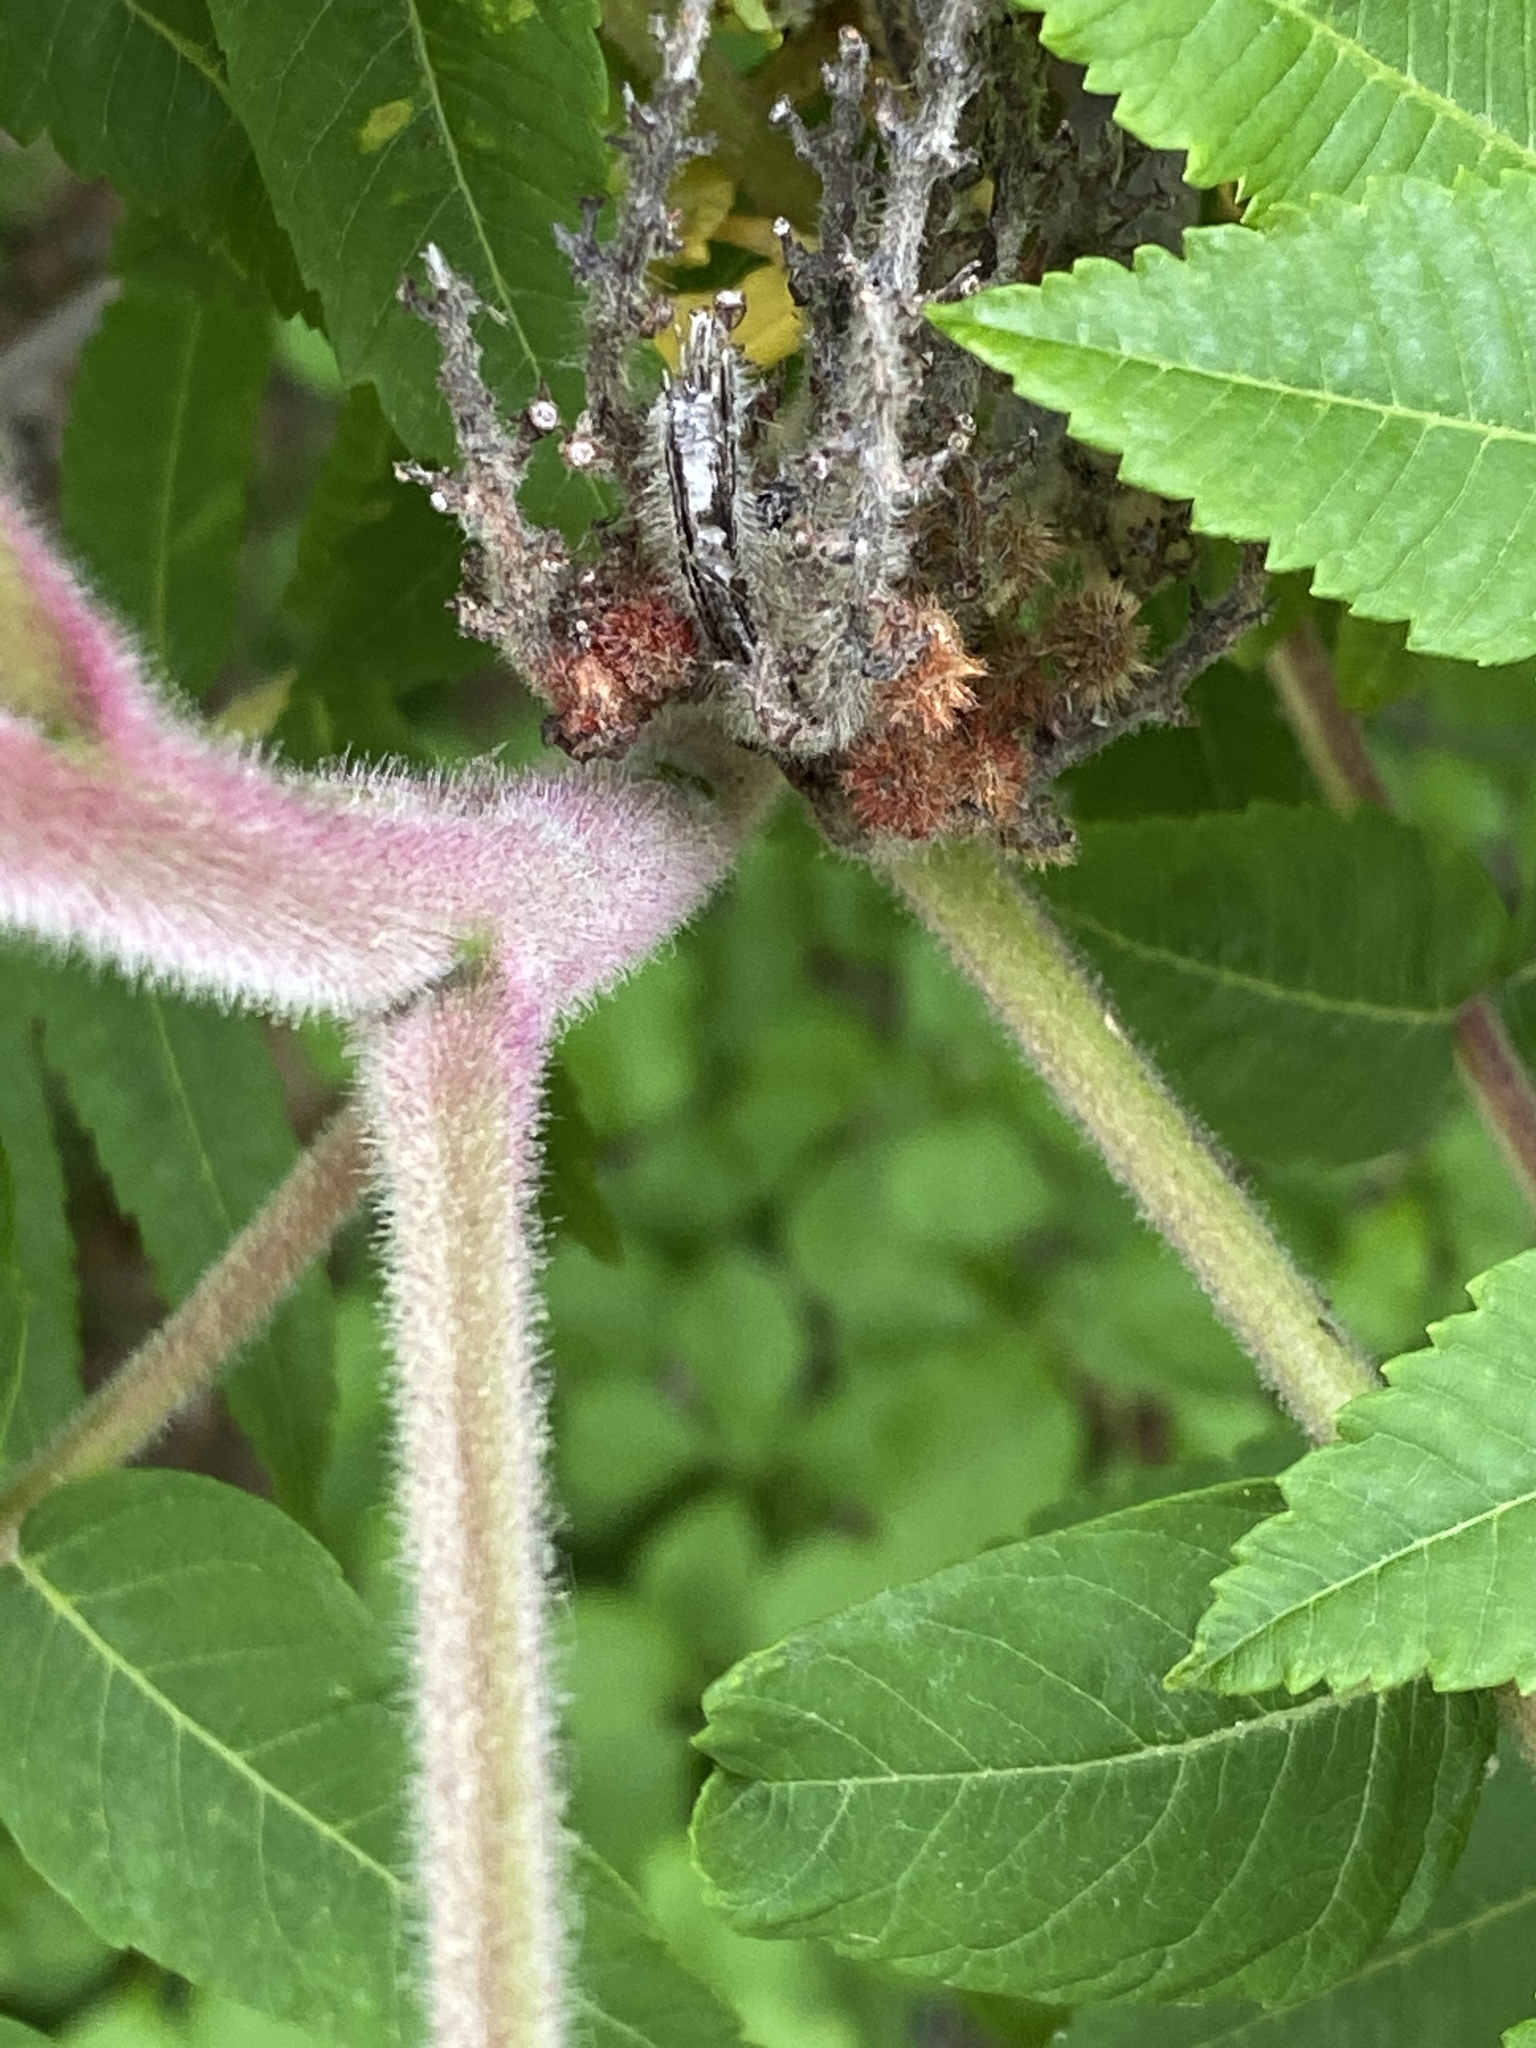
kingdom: Plantae
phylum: Tracheophyta
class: Magnoliopsida
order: Sapindales
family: Anacardiaceae
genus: Rhus
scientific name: Rhus typhina
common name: Staghorn sumac
